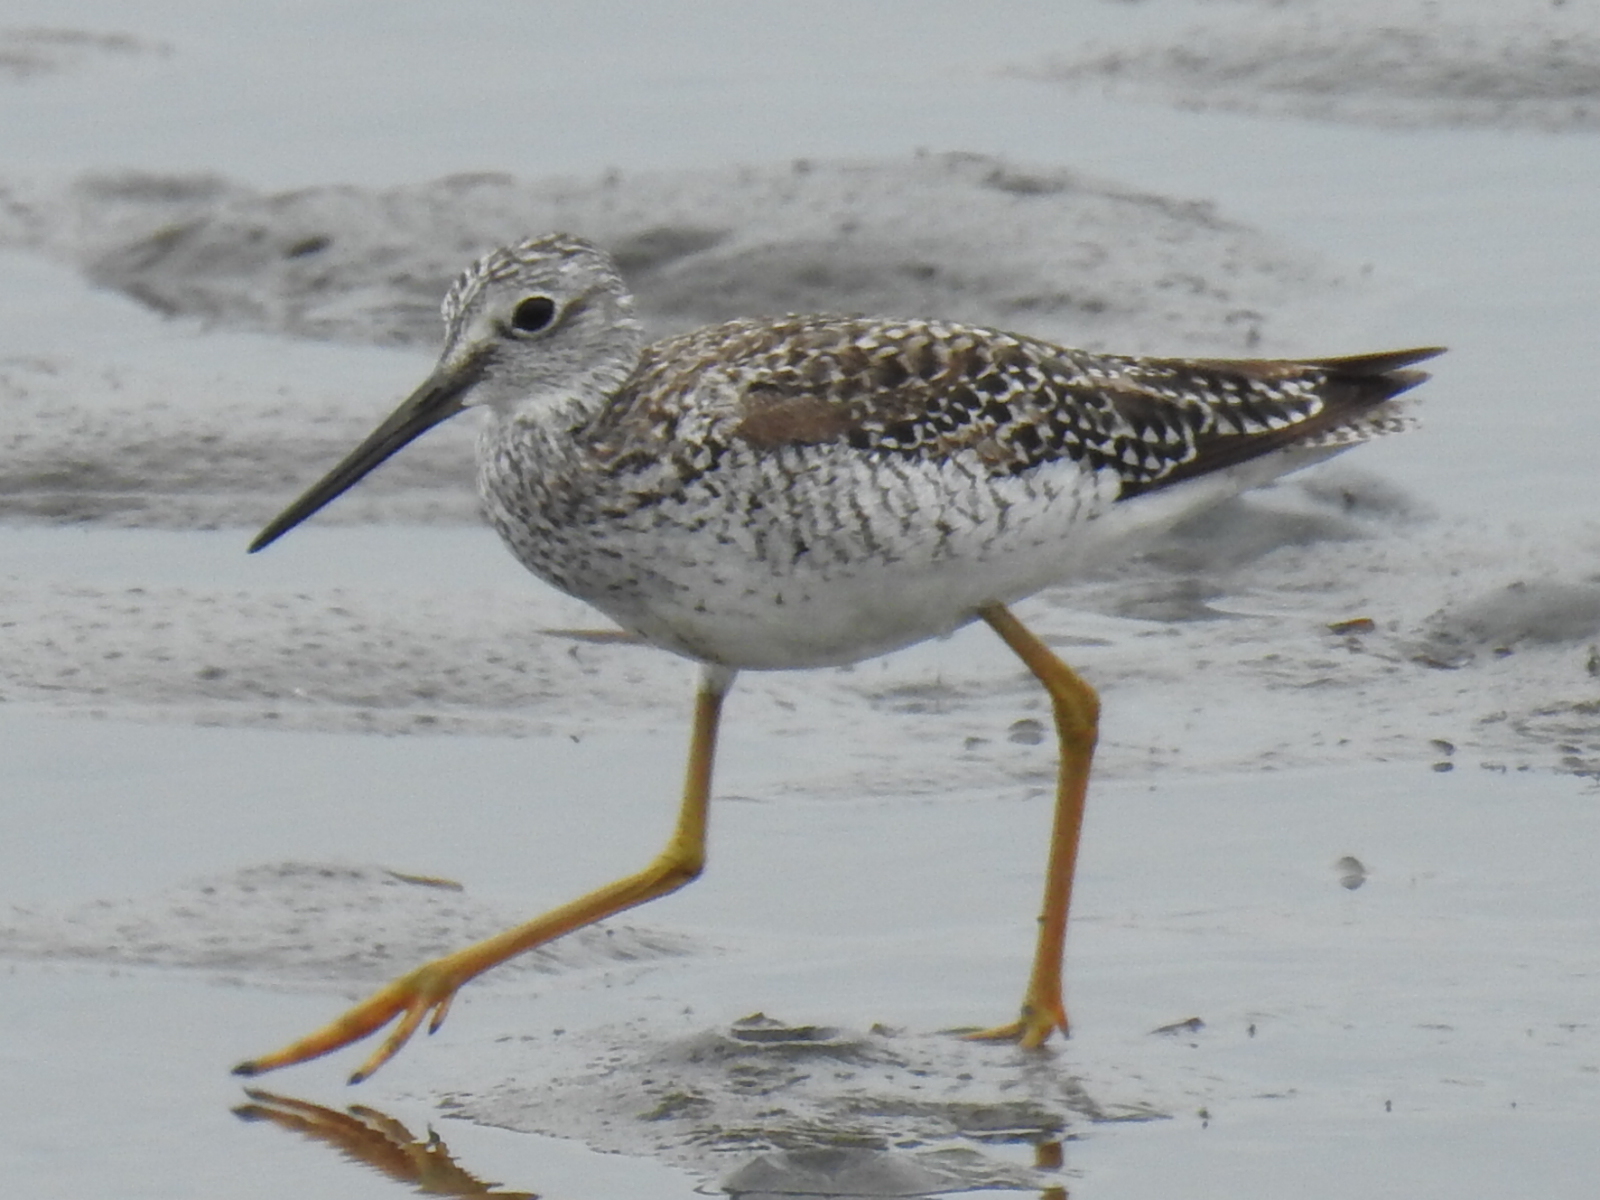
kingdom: Animalia
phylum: Chordata
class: Aves
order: Charadriiformes
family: Scolopacidae
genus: Tringa
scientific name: Tringa melanoleuca
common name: Greater yellowlegs
